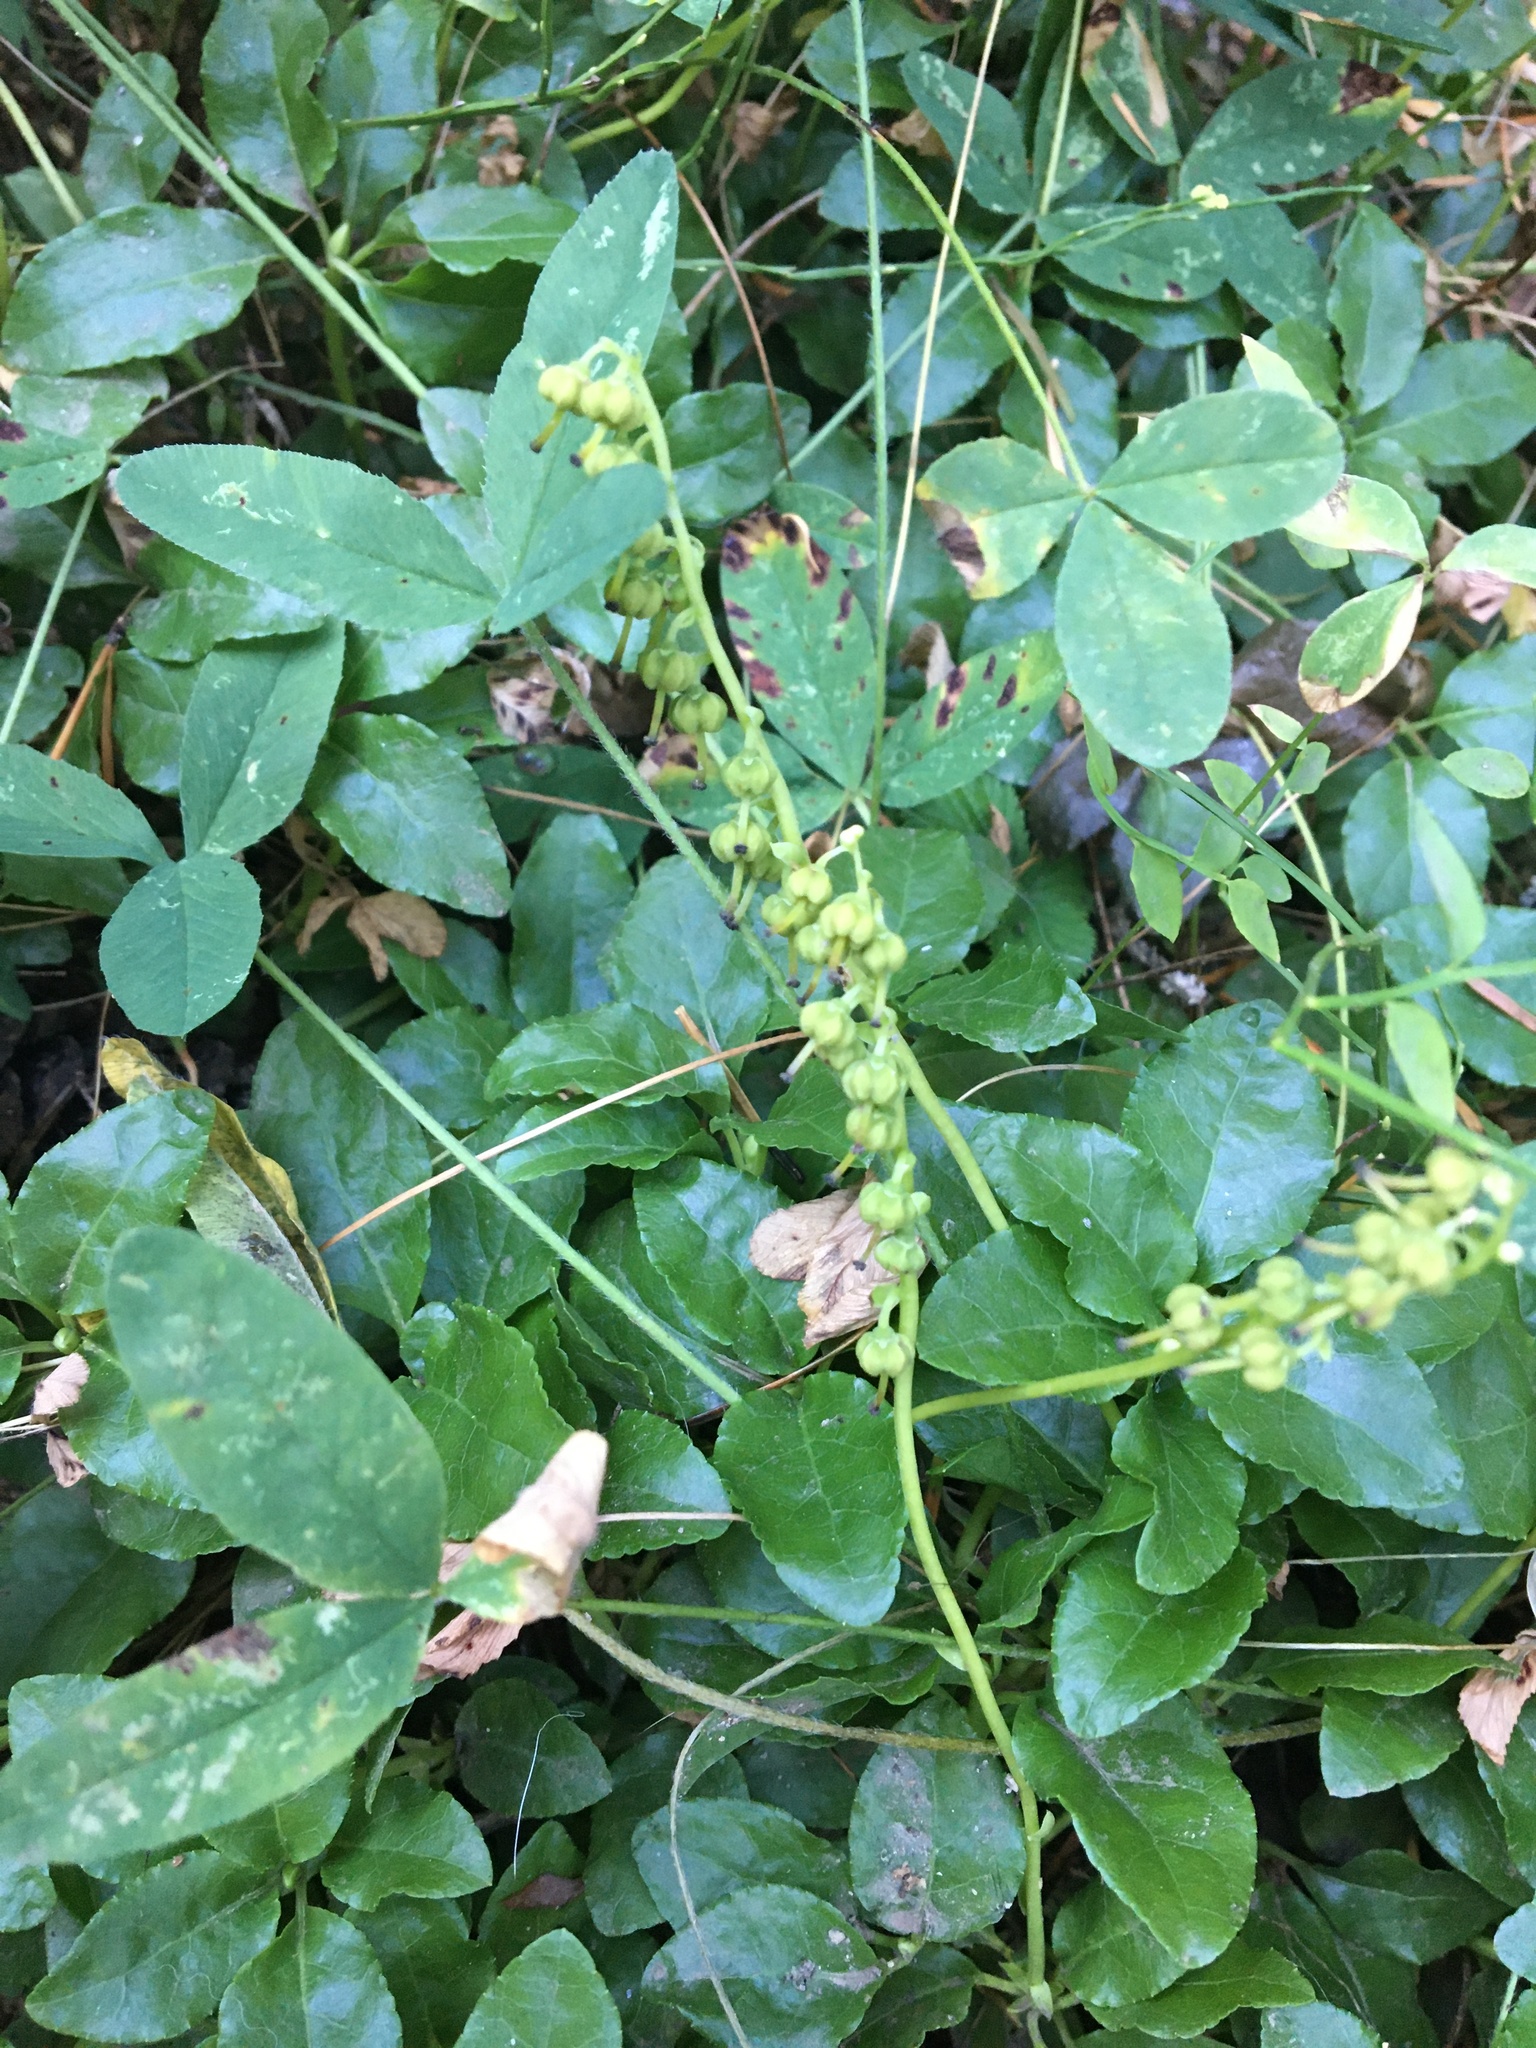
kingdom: Plantae
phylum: Tracheophyta
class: Magnoliopsida
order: Ericales
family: Ericaceae
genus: Orthilia
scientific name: Orthilia secunda
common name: One-sided orthilia
